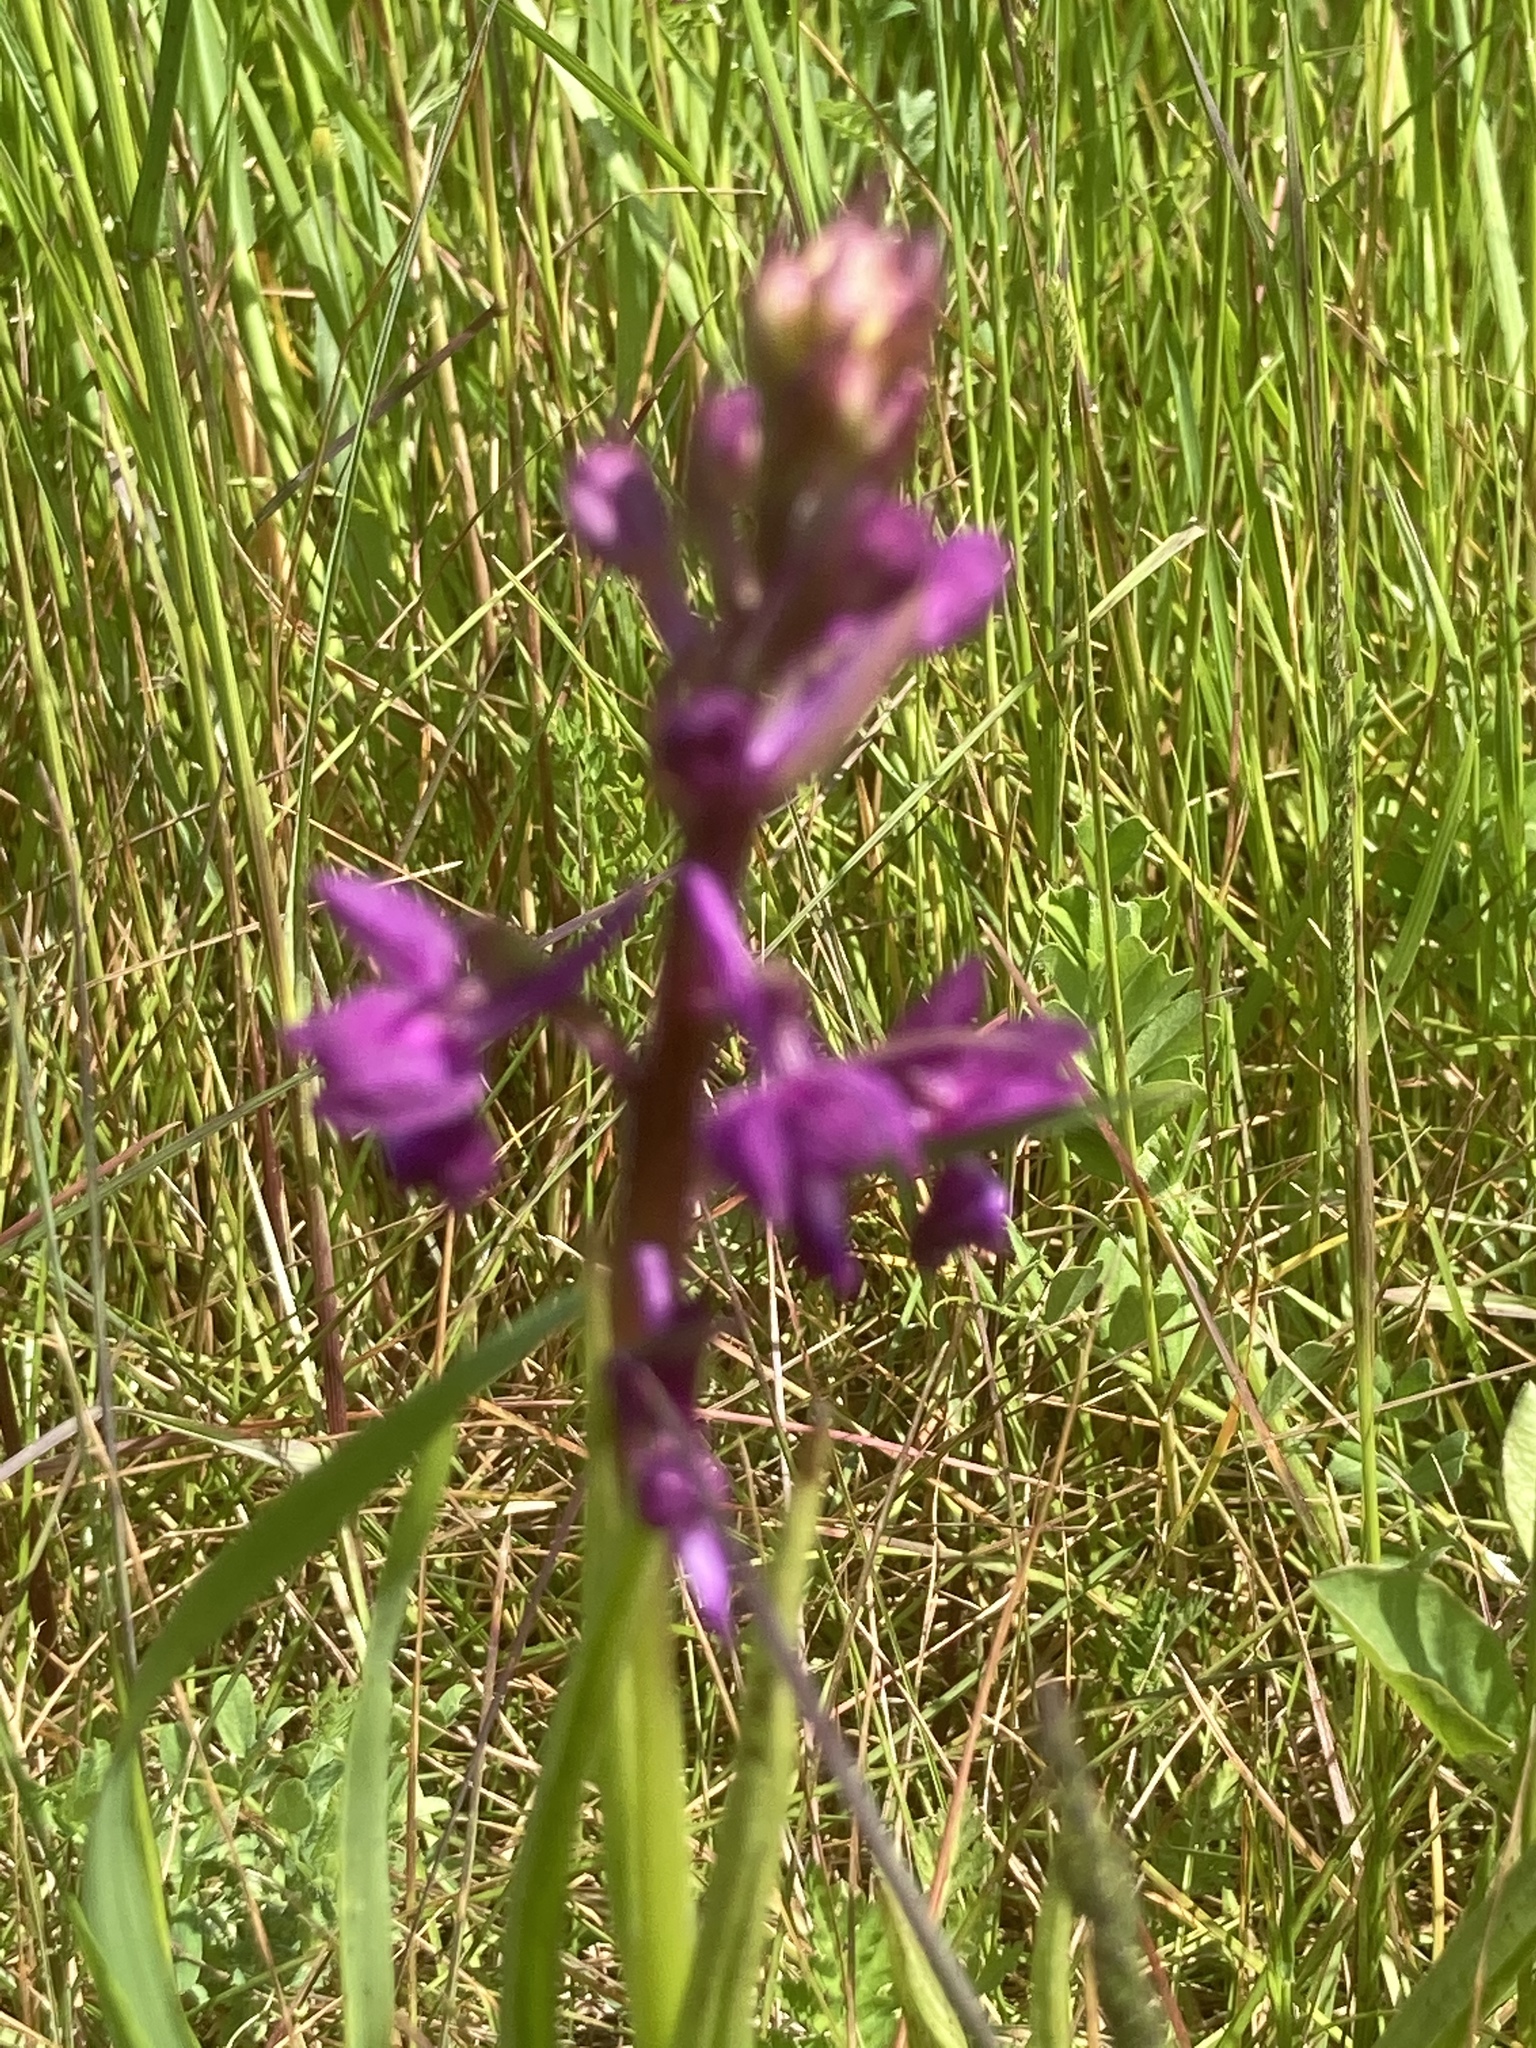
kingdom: Plantae
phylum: Tracheophyta
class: Liliopsida
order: Asparagales
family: Orchidaceae
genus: Anacamptis
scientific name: Anacamptis laxiflora
